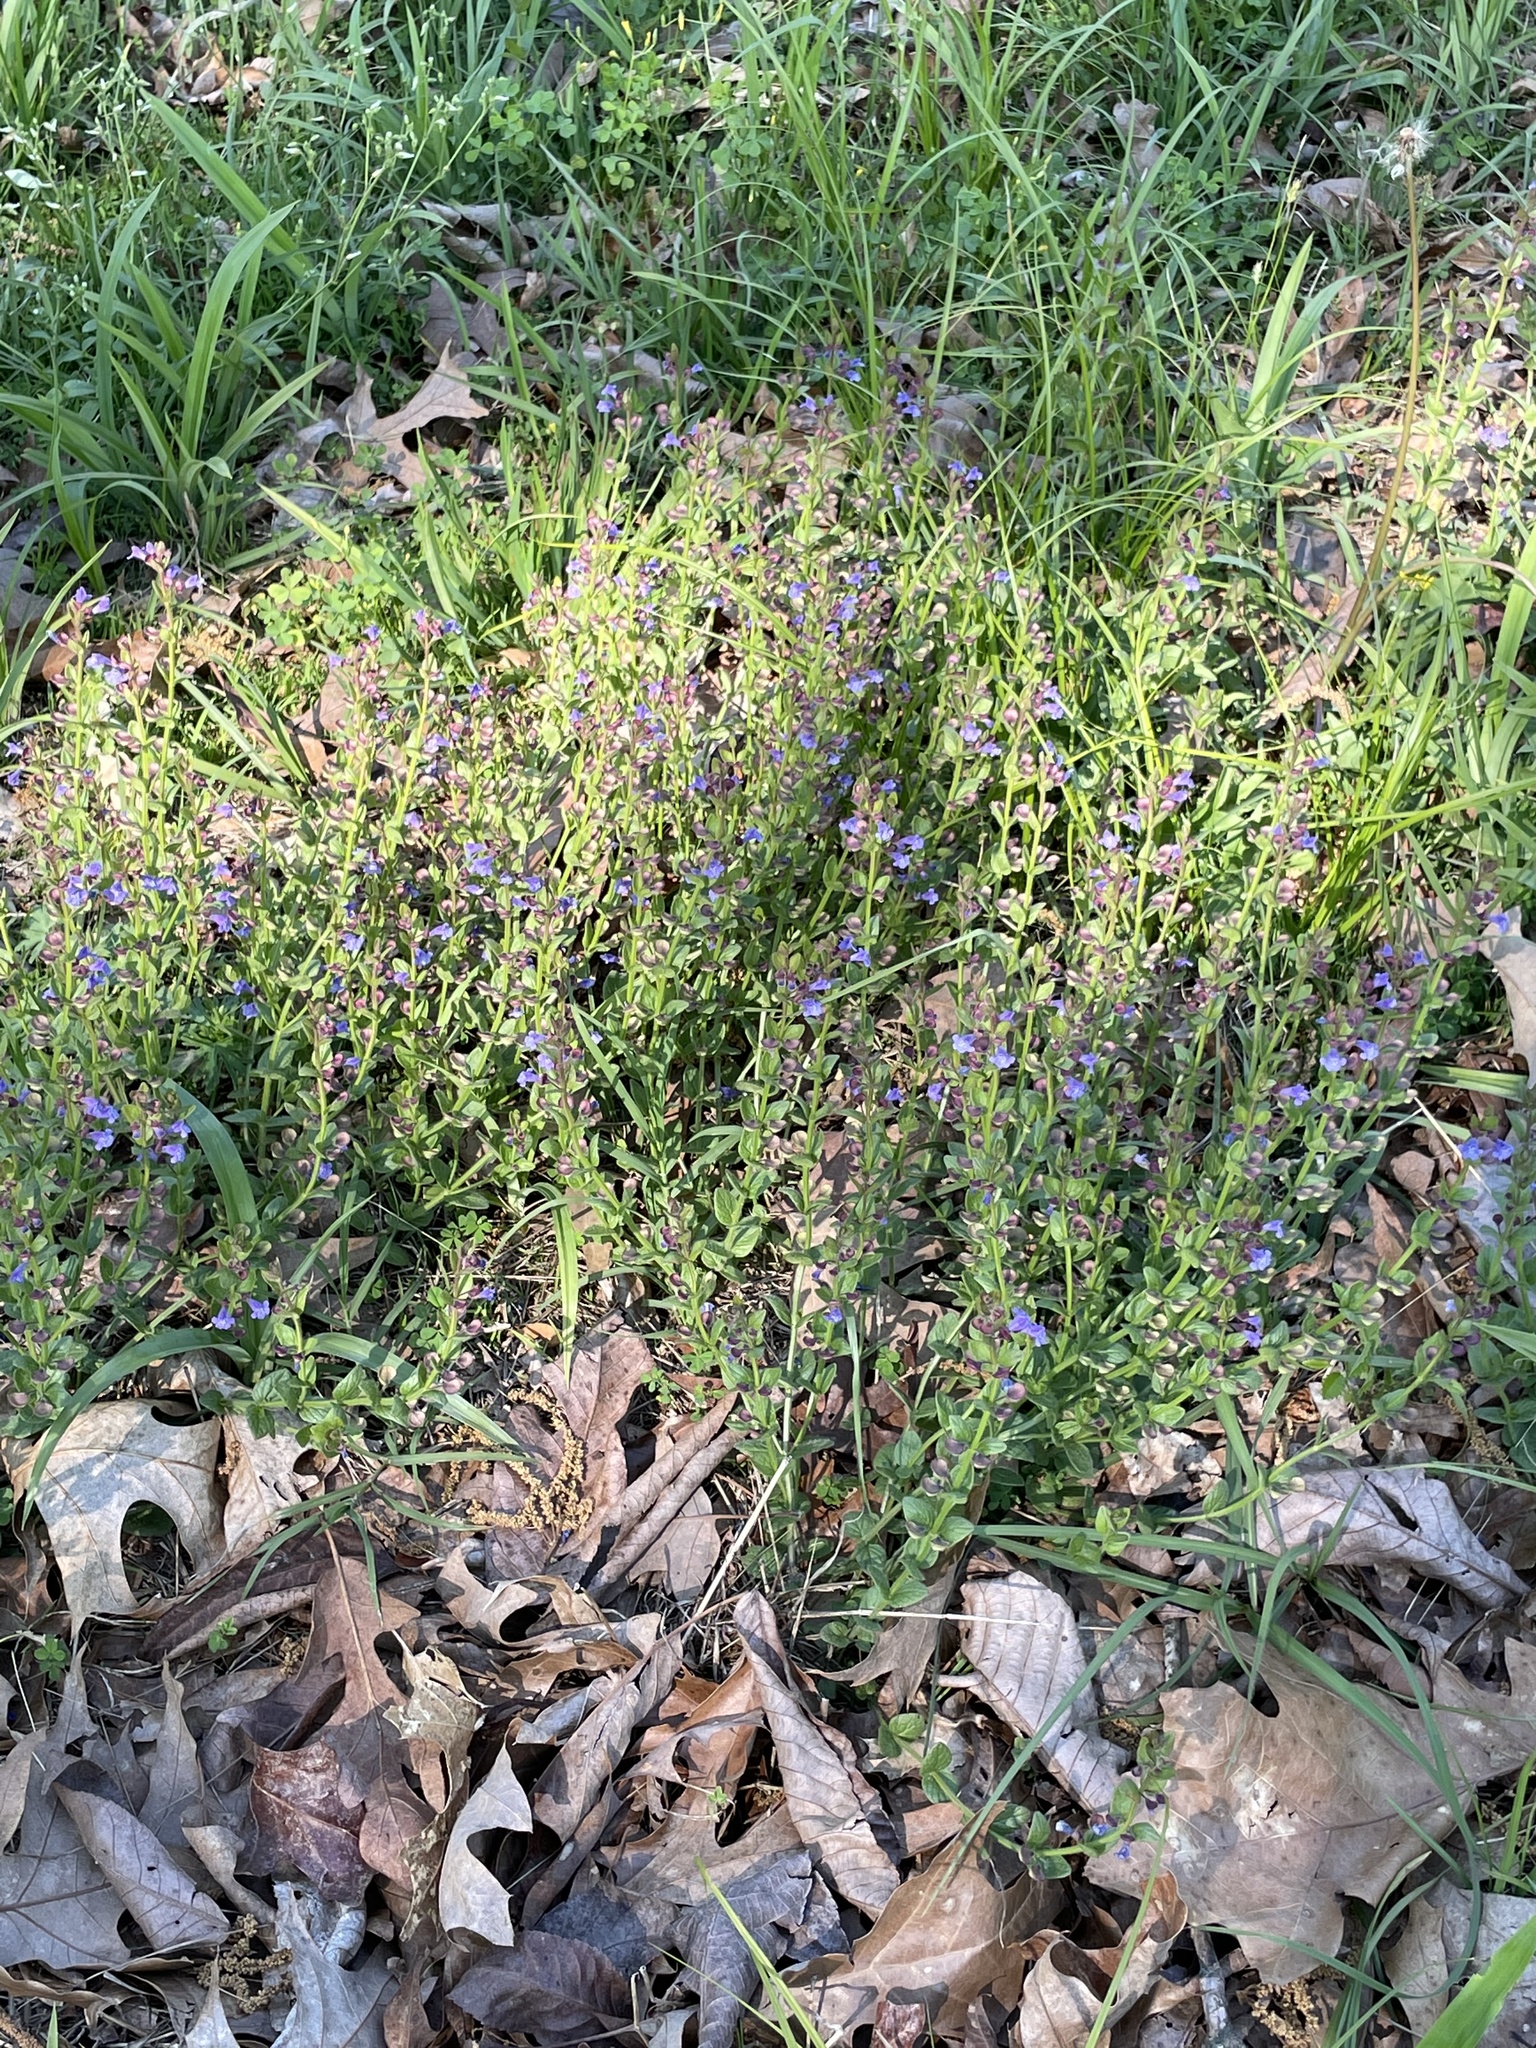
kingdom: Plantae
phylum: Tracheophyta
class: Magnoliopsida
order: Lamiales
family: Lamiaceae
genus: Scutellaria
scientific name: Scutellaria parvula
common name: Little scullcap
